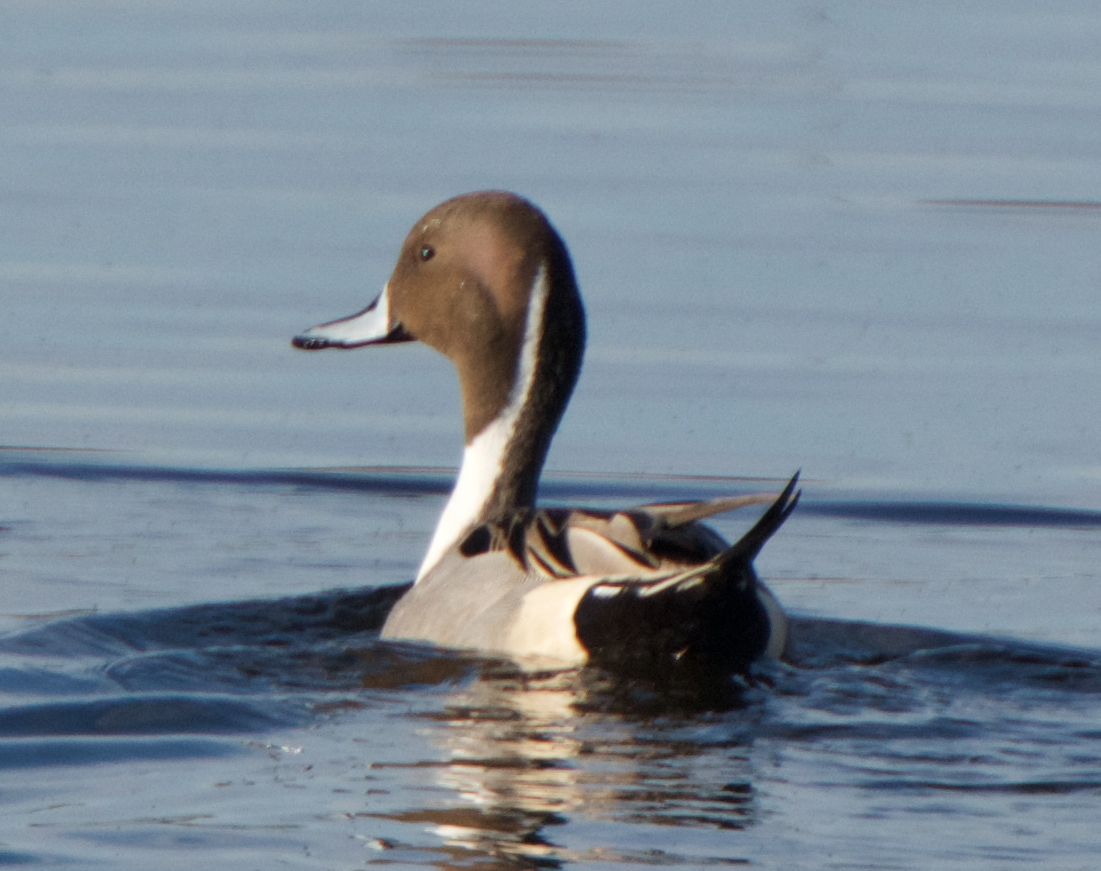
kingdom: Animalia
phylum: Chordata
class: Aves
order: Anseriformes
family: Anatidae
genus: Anas
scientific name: Anas acuta
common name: Northern pintail
